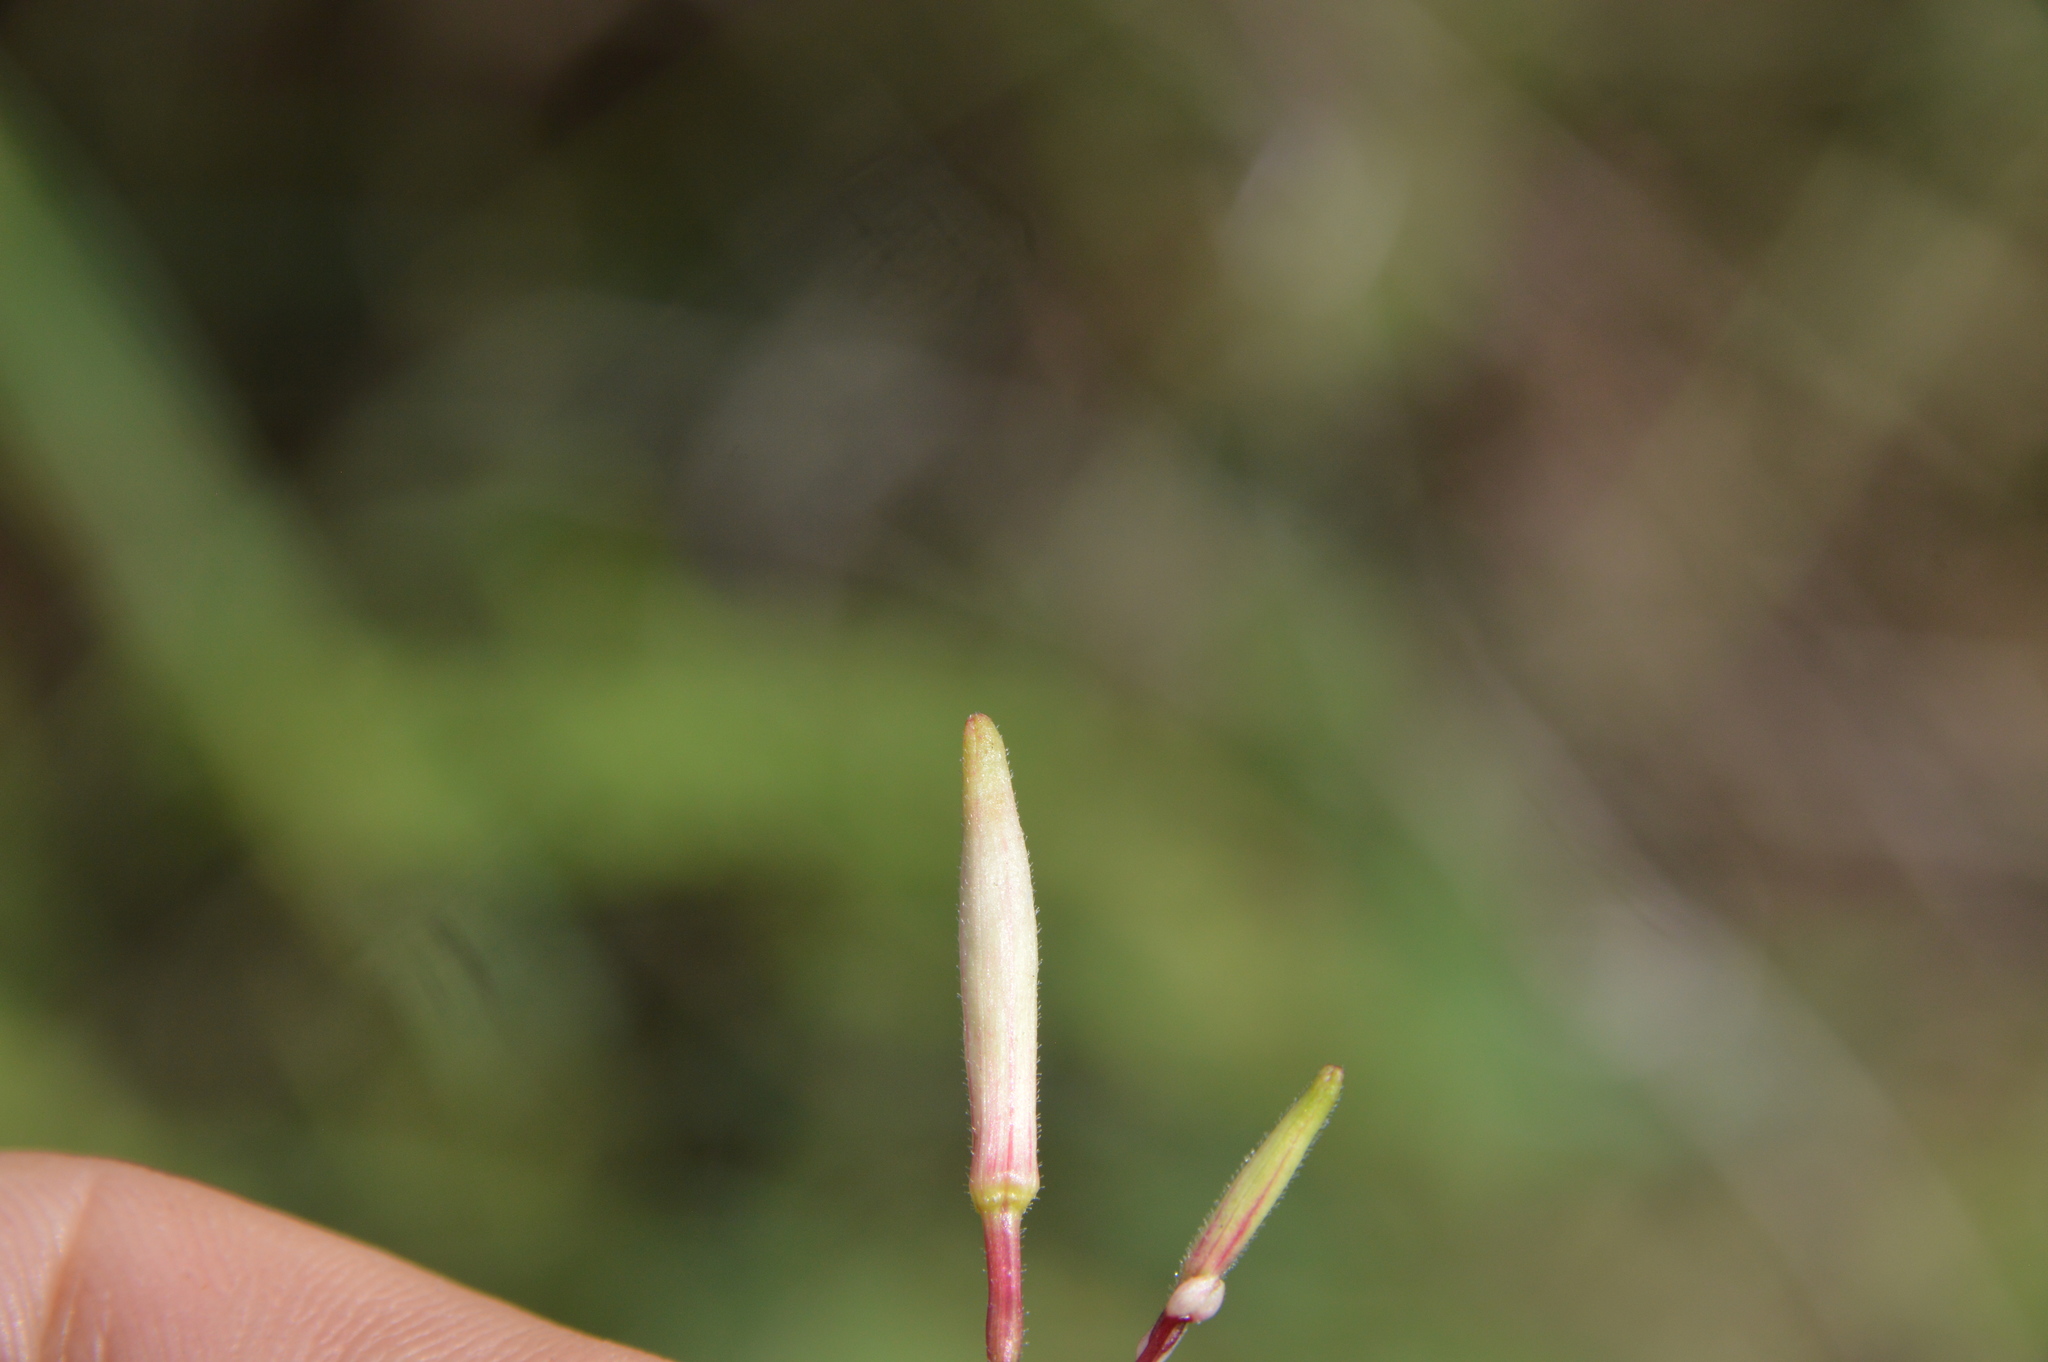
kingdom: Plantae
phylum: Tracheophyta
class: Magnoliopsida
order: Myrtales
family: Onagraceae
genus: Oenothera
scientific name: Oenothera lindheimeri
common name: Lindheimer's beeblossom
